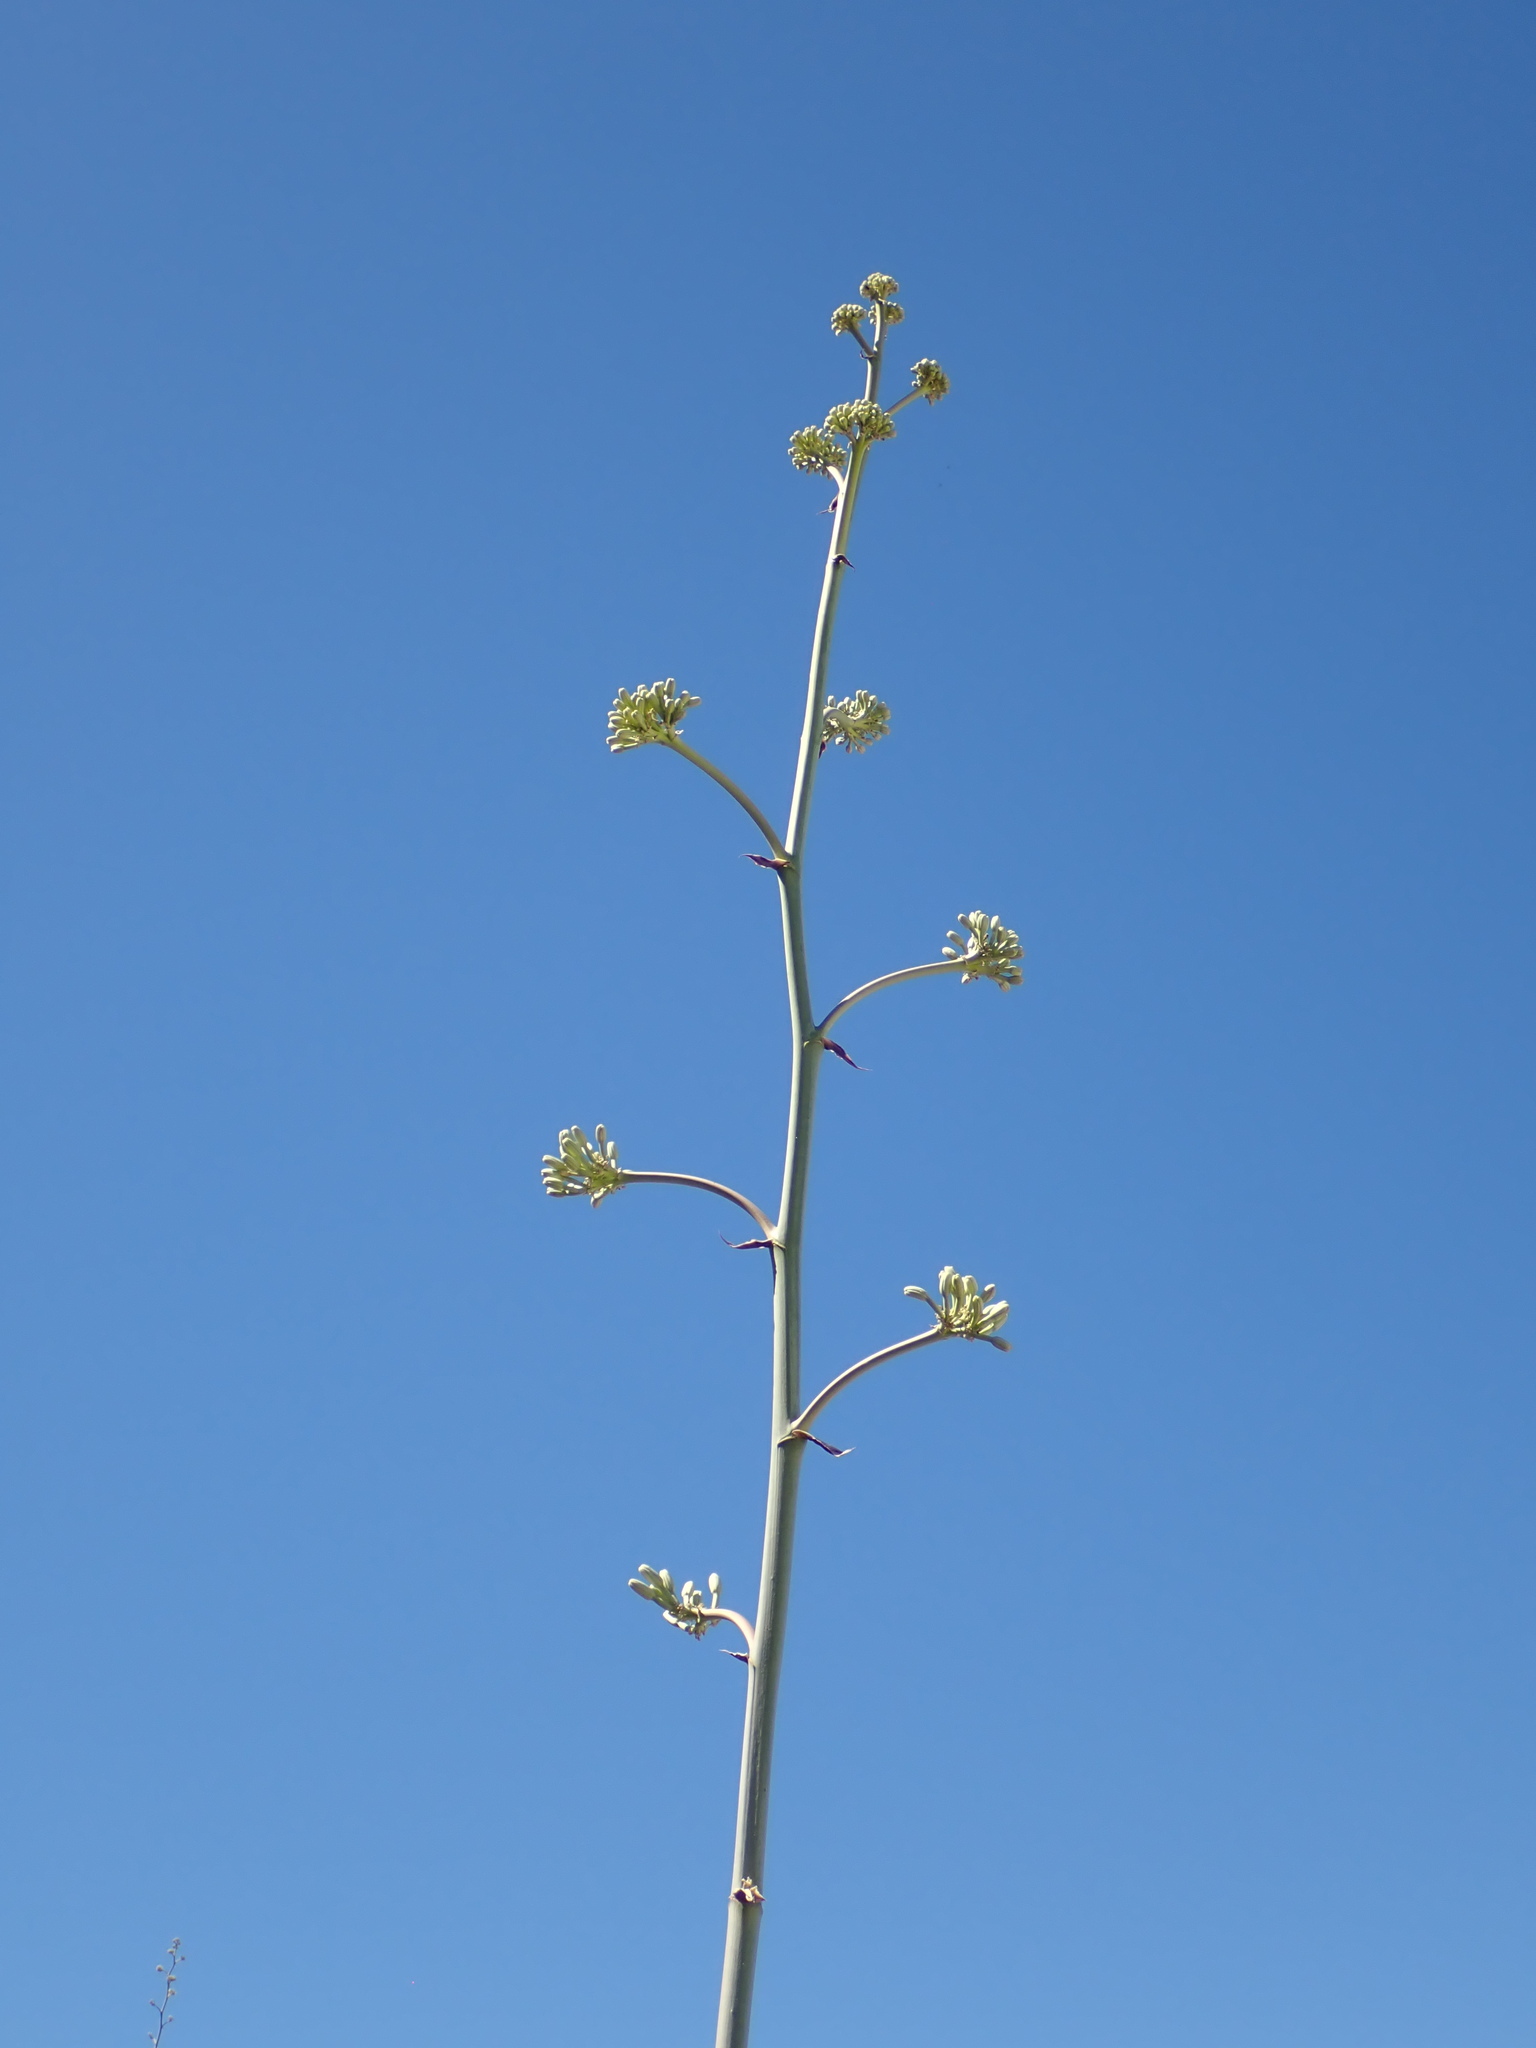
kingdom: Plantae
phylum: Tracheophyta
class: Liliopsida
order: Asparagales
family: Asparagaceae
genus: Agave
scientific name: Agave sobria
